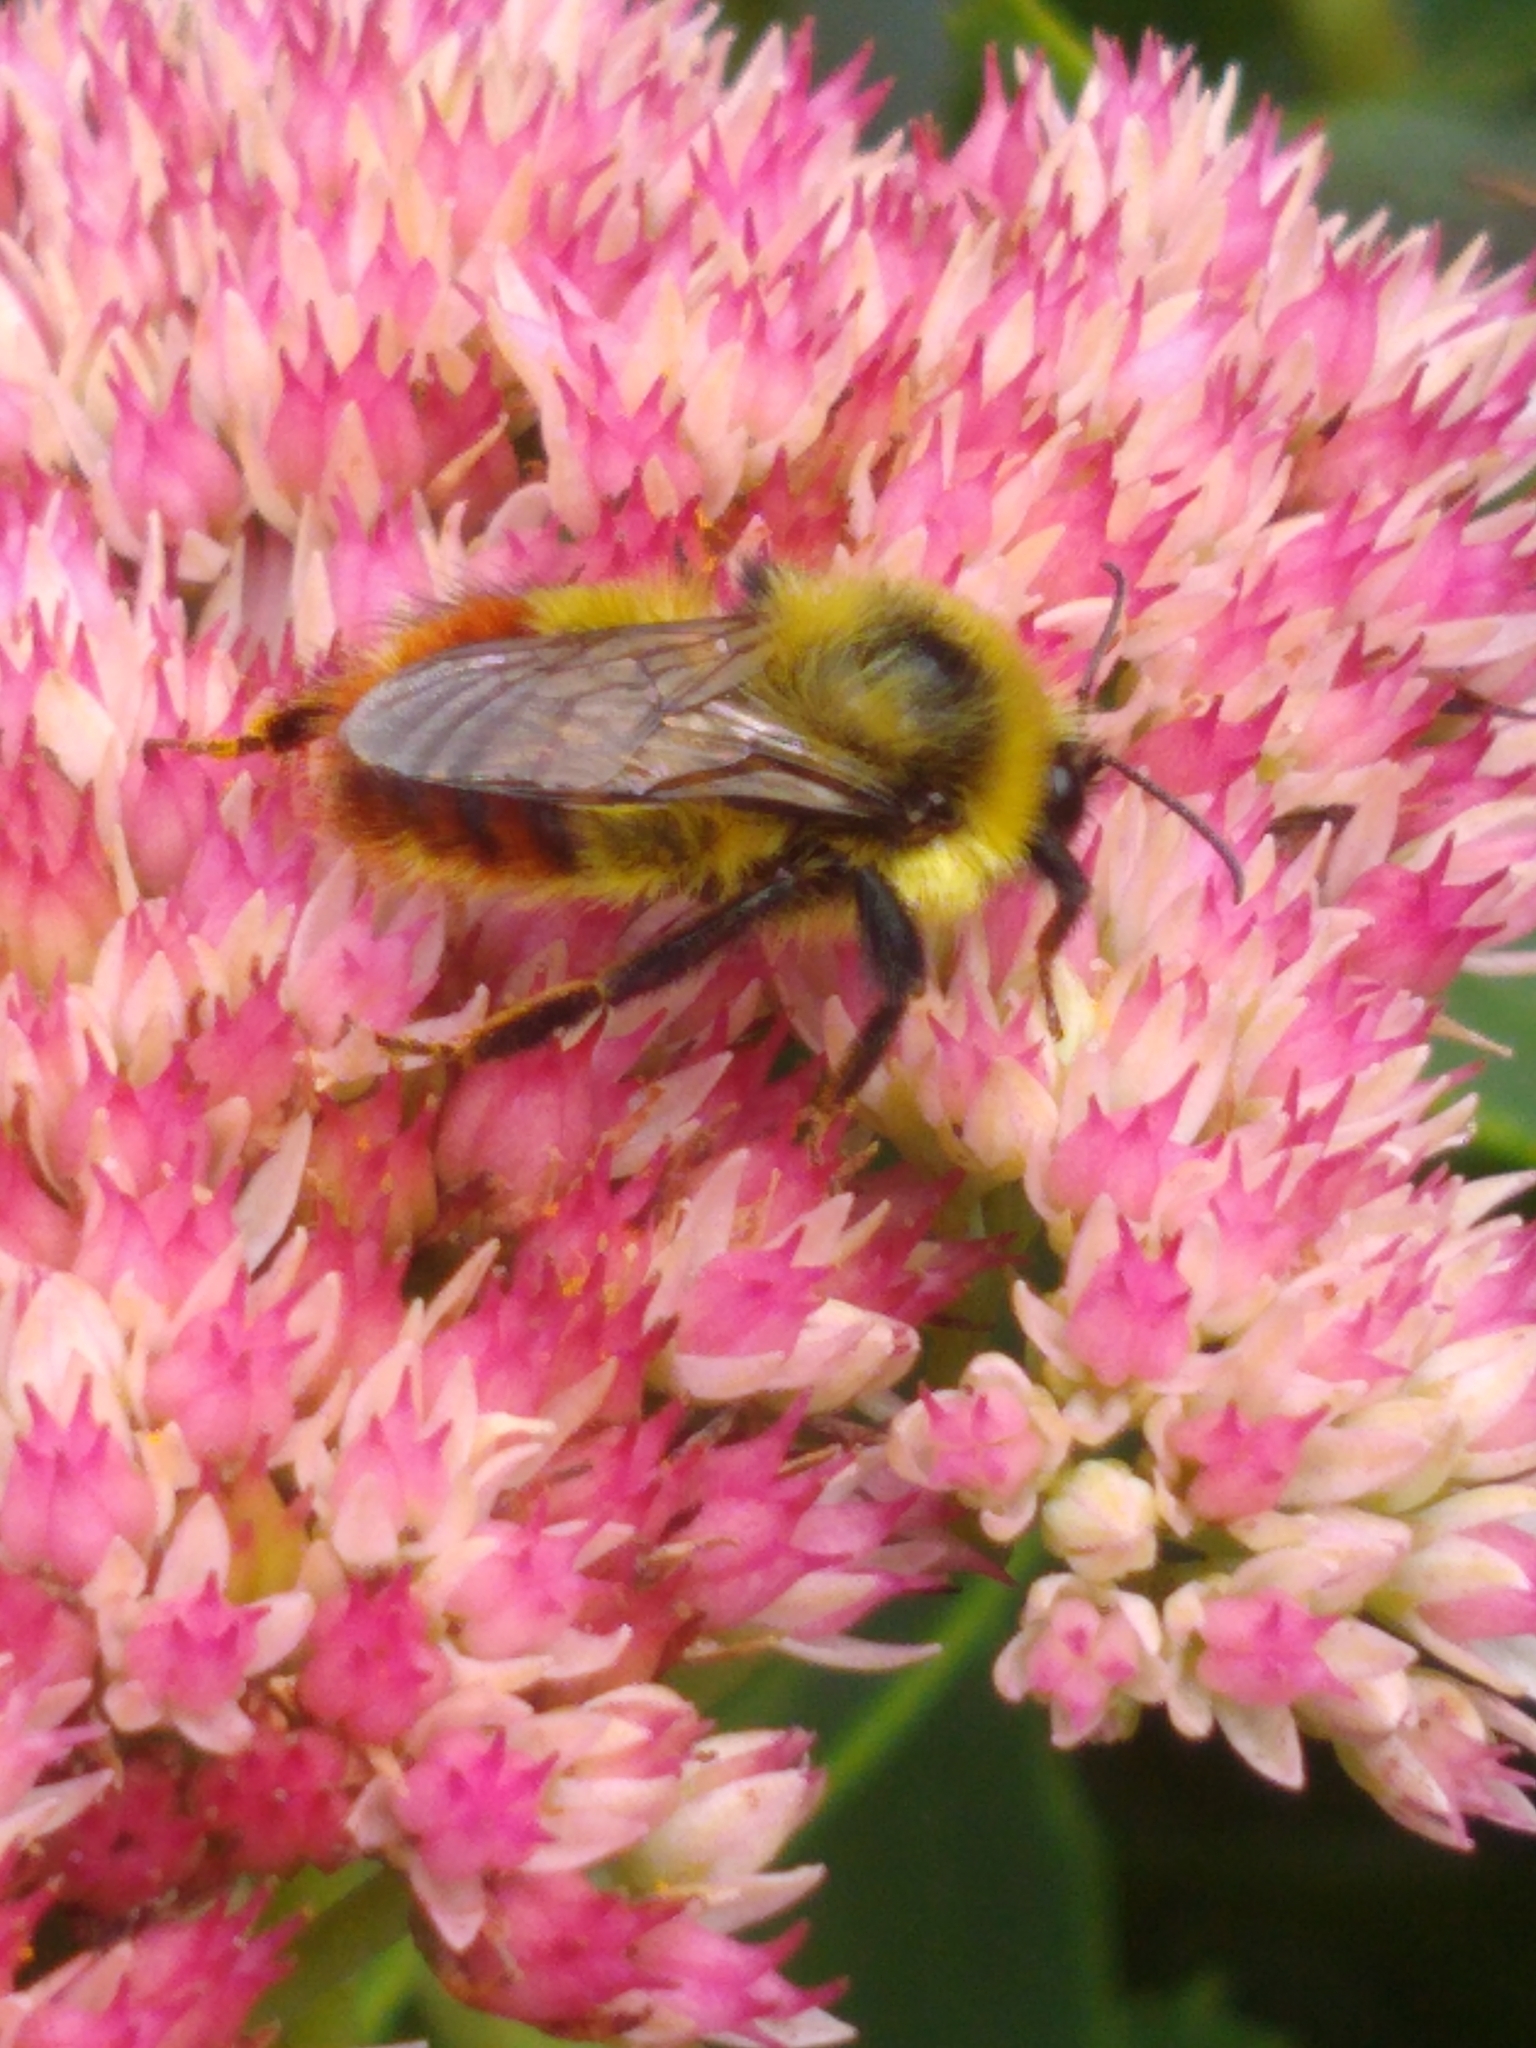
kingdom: Animalia
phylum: Arthropoda
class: Insecta
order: Hymenoptera
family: Apidae
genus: Bombus
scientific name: Bombus rufocinctus
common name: Red-belted bumble bee
